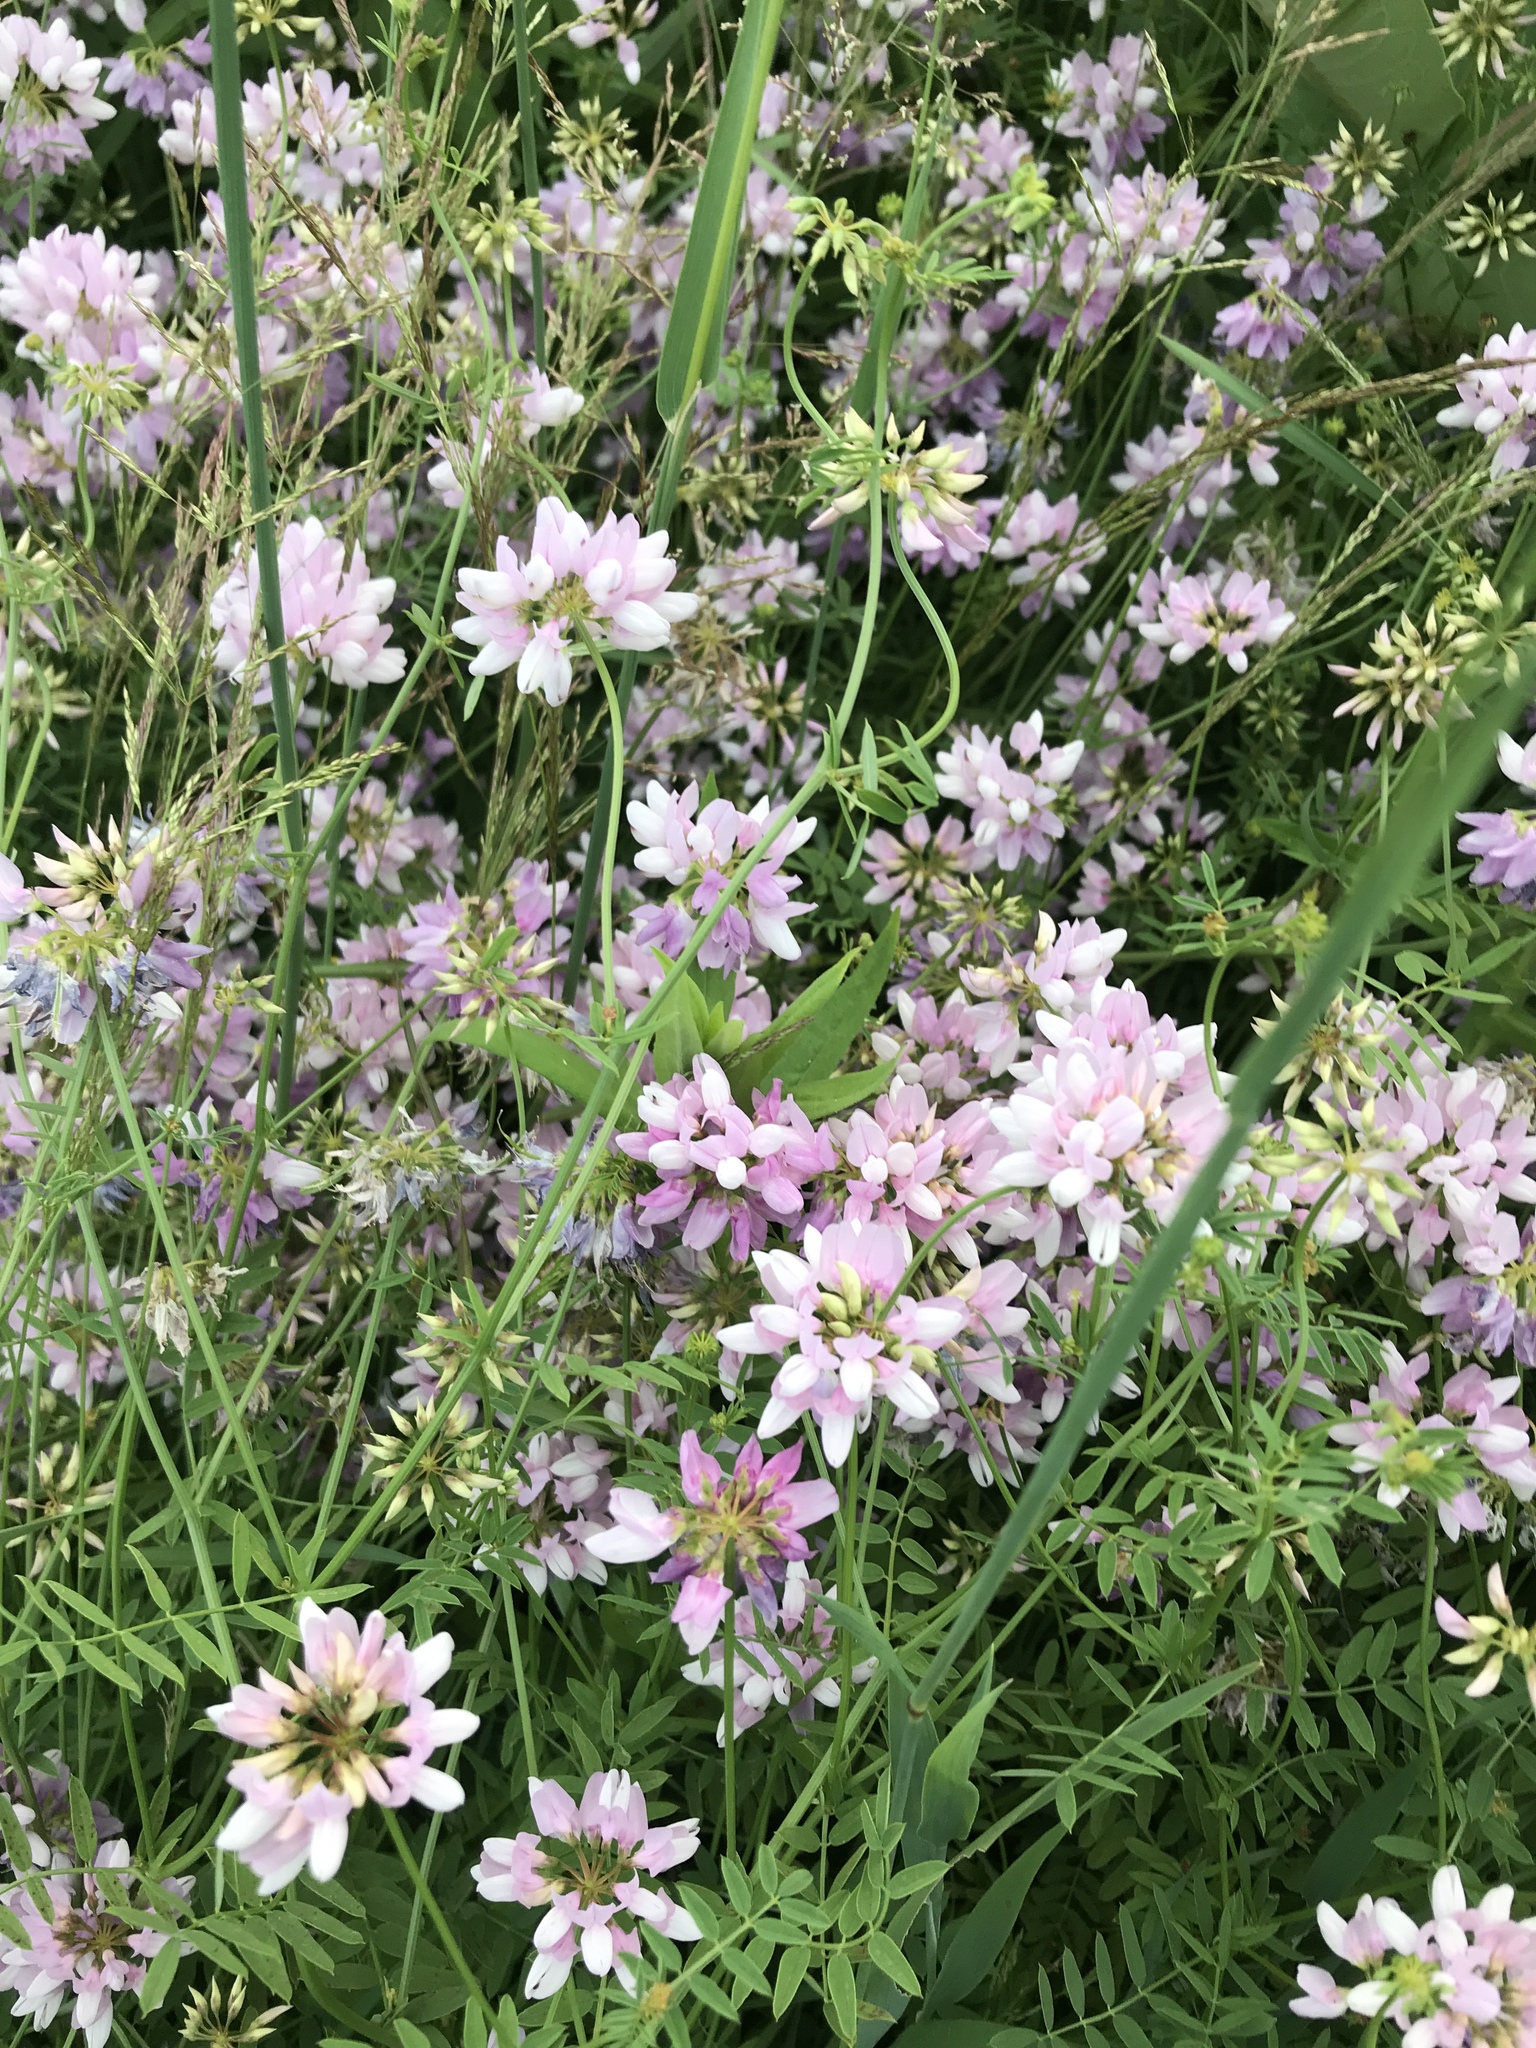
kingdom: Plantae
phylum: Tracheophyta
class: Magnoliopsida
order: Fabales
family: Fabaceae
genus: Coronilla
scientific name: Coronilla varia
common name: Crownvetch
